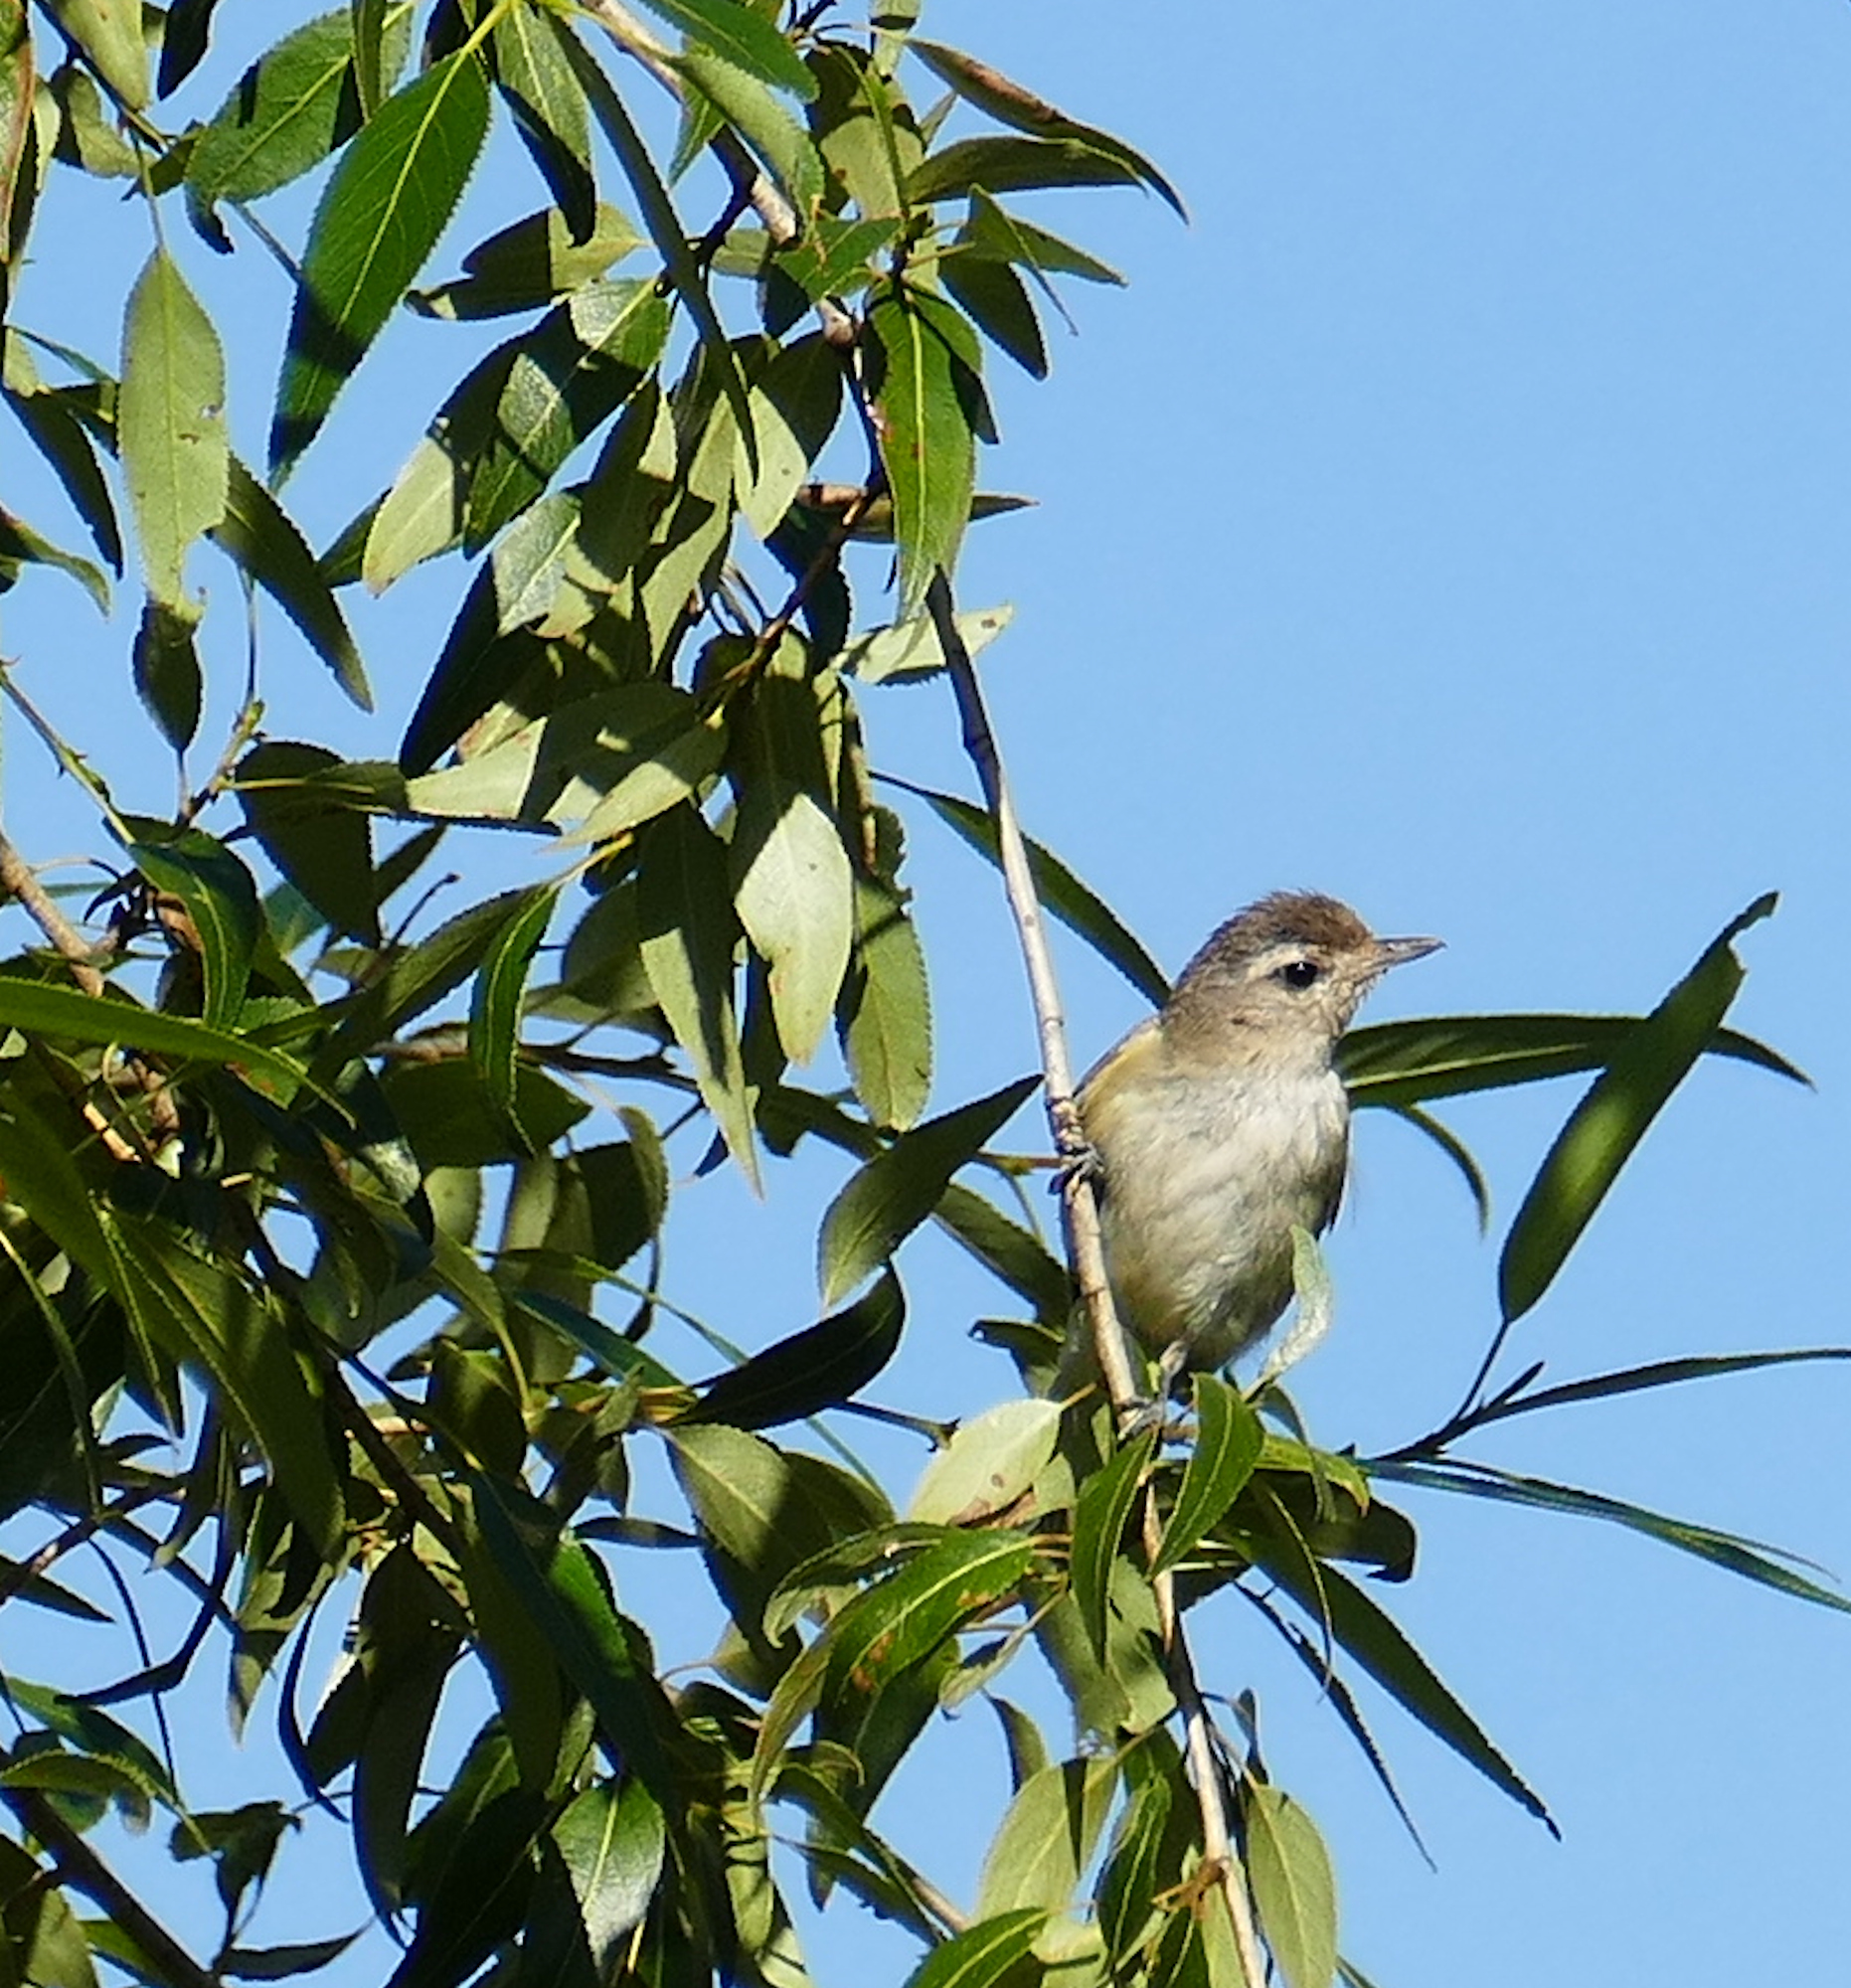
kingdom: Animalia
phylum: Chordata
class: Aves
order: Passeriformes
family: Vireonidae
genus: Vireo
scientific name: Vireo gilvus
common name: Warbling vireo
